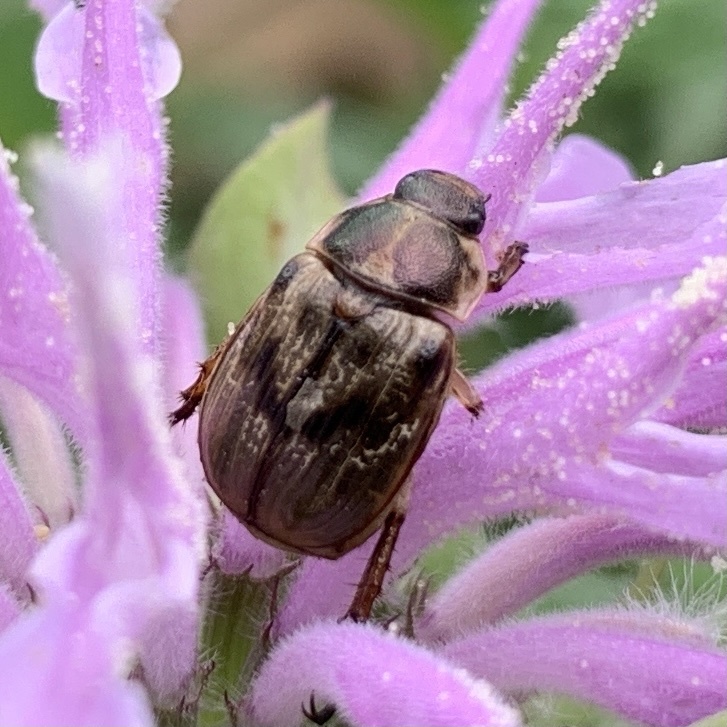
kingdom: Animalia
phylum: Arthropoda
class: Insecta
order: Coleoptera
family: Scarabaeidae
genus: Exomala
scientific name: Exomala orientalis
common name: Oriental beetle
